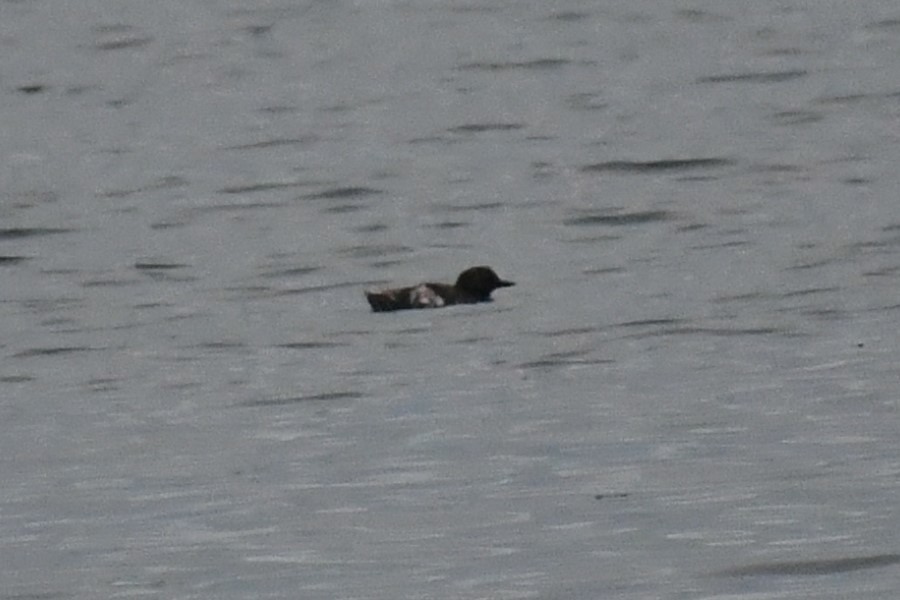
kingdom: Animalia
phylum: Chordata
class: Aves
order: Charadriiformes
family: Alcidae
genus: Cepphus
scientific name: Cepphus columba
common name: Pigeon guillemot
